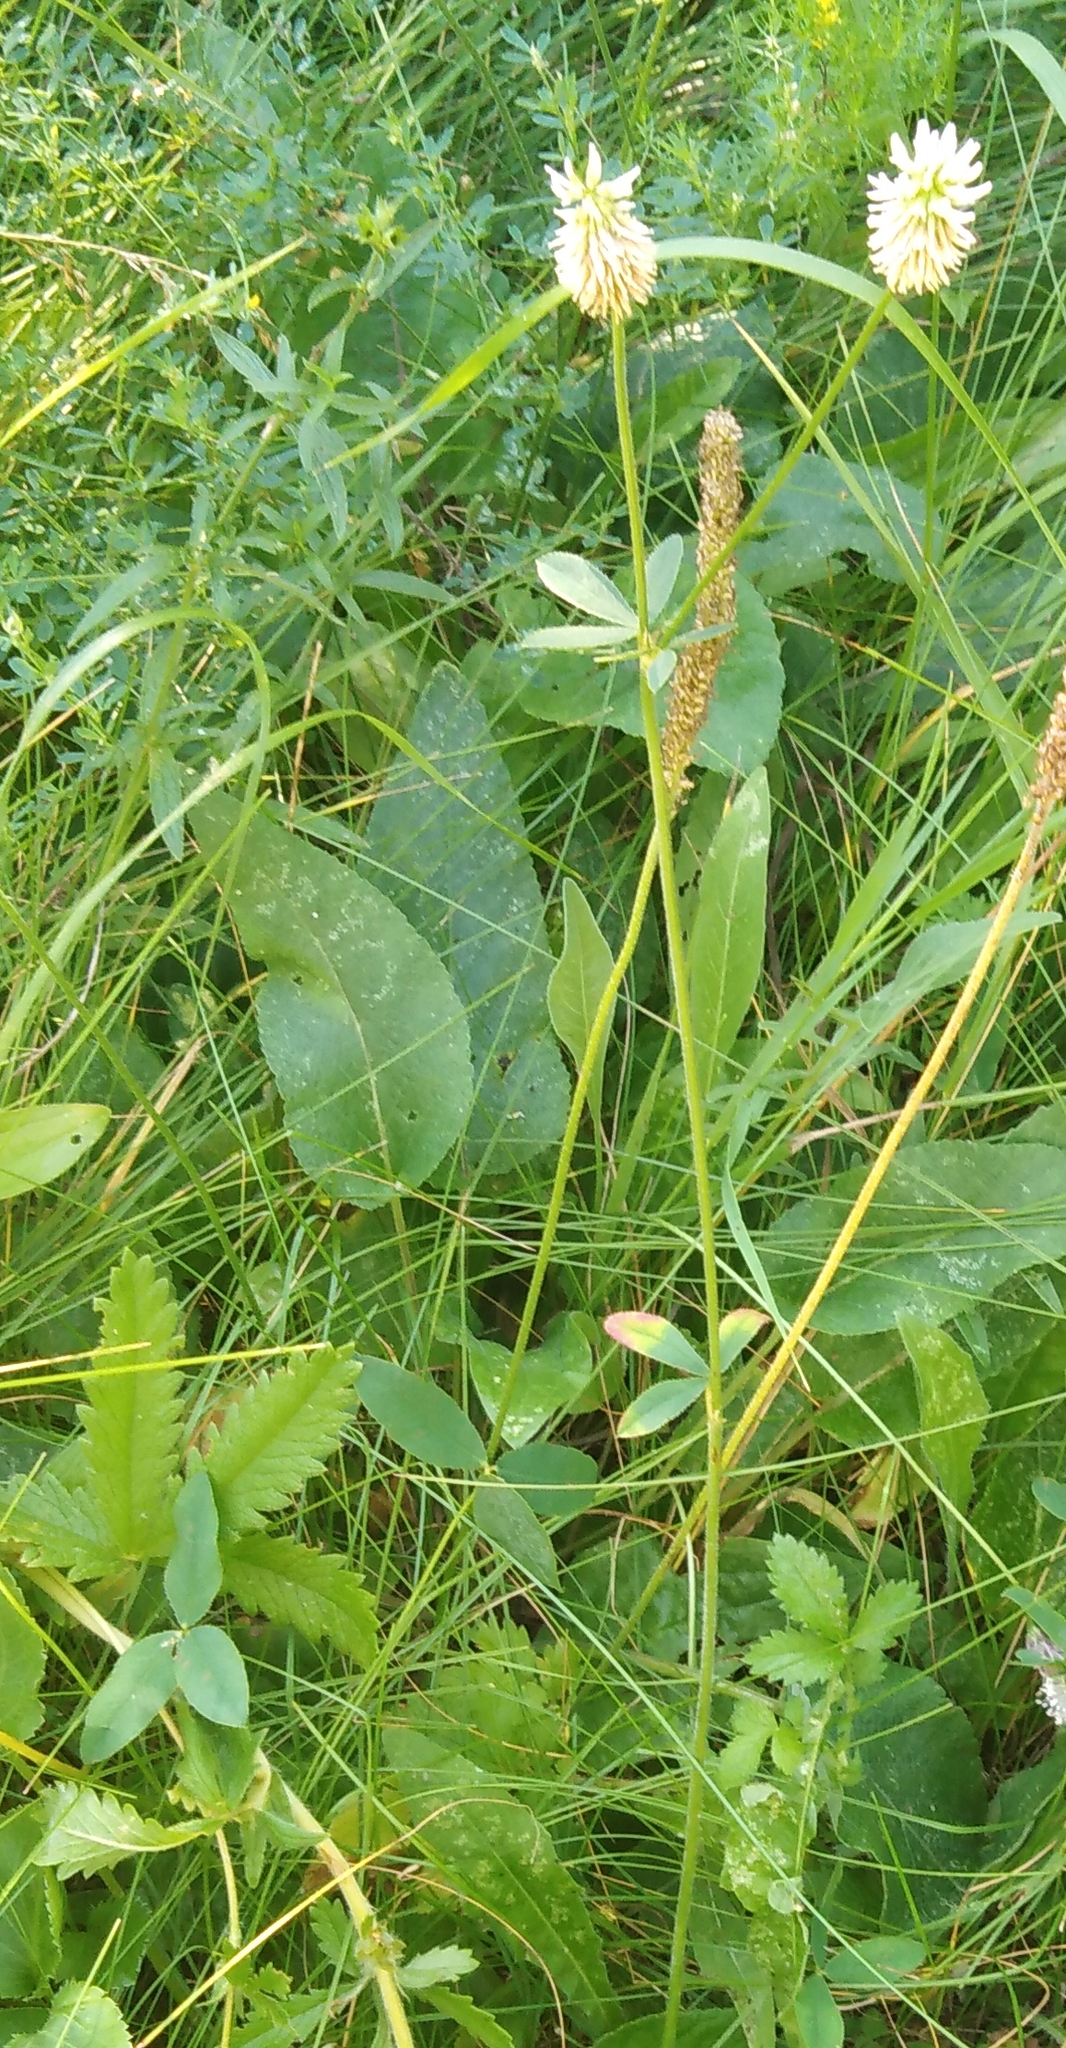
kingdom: Plantae
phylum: Tracheophyta
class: Magnoliopsida
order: Fabales
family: Fabaceae
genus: Trifolium
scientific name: Trifolium montanum
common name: Mountain clover
